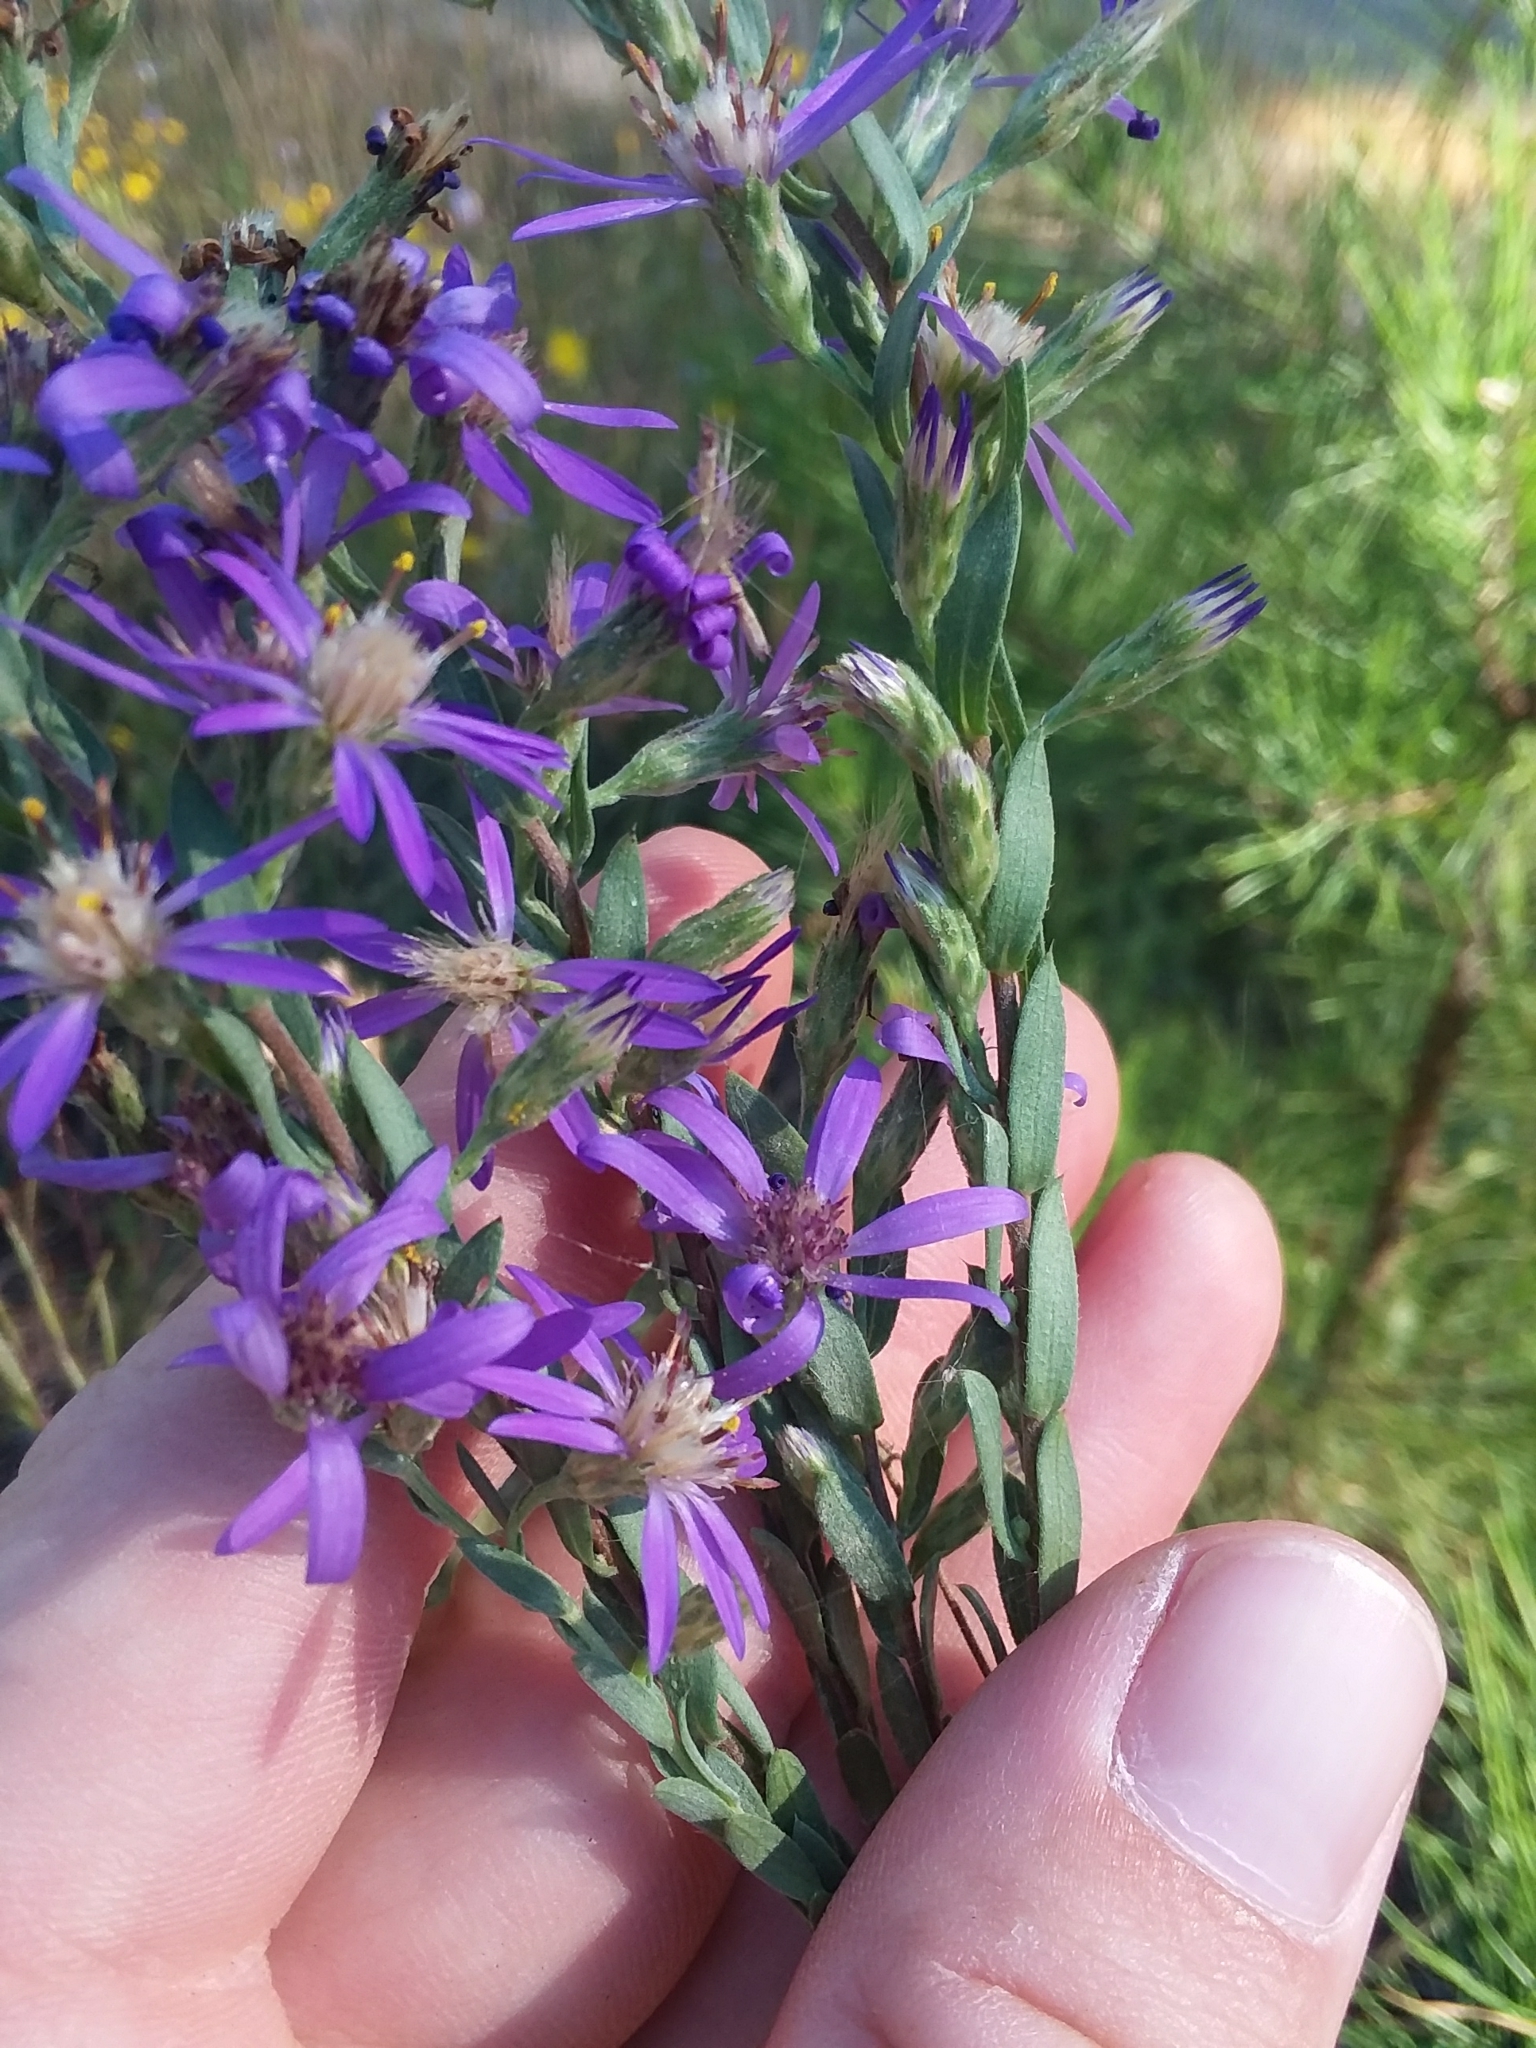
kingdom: Plantae
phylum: Tracheophyta
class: Magnoliopsida
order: Asterales
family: Asteraceae
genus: Symphyotrichum
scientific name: Symphyotrichum concolor
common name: Eastern silver aster
